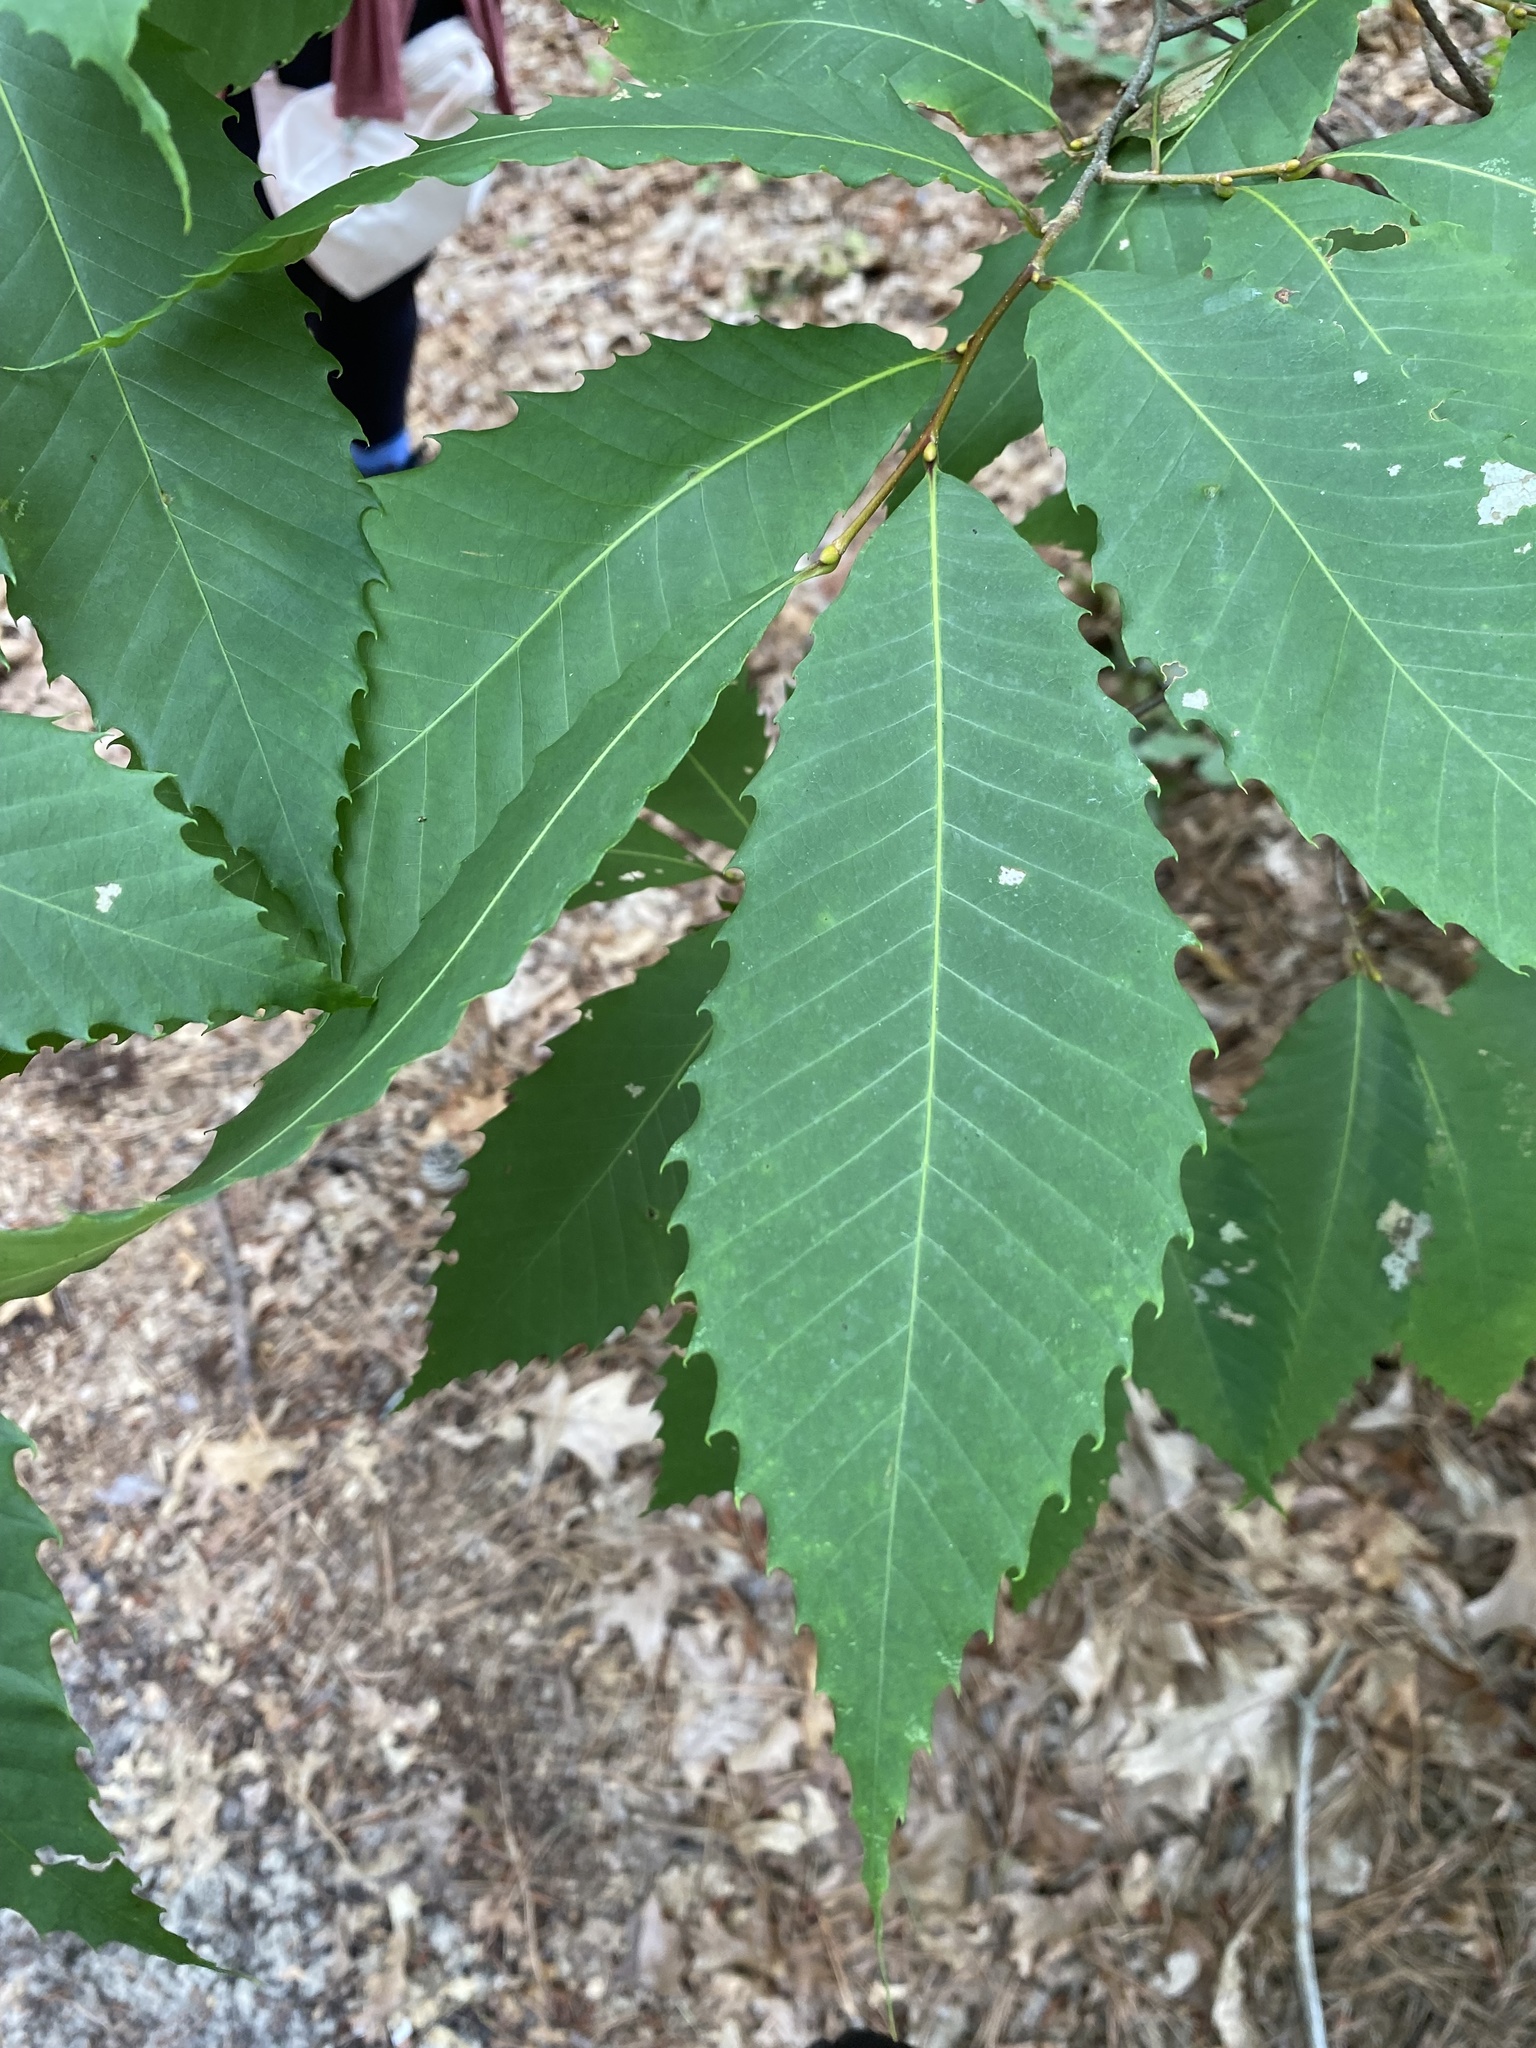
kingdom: Plantae
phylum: Tracheophyta
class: Magnoliopsida
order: Fagales
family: Fagaceae
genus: Castanea
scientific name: Castanea dentata
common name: American chestnut
